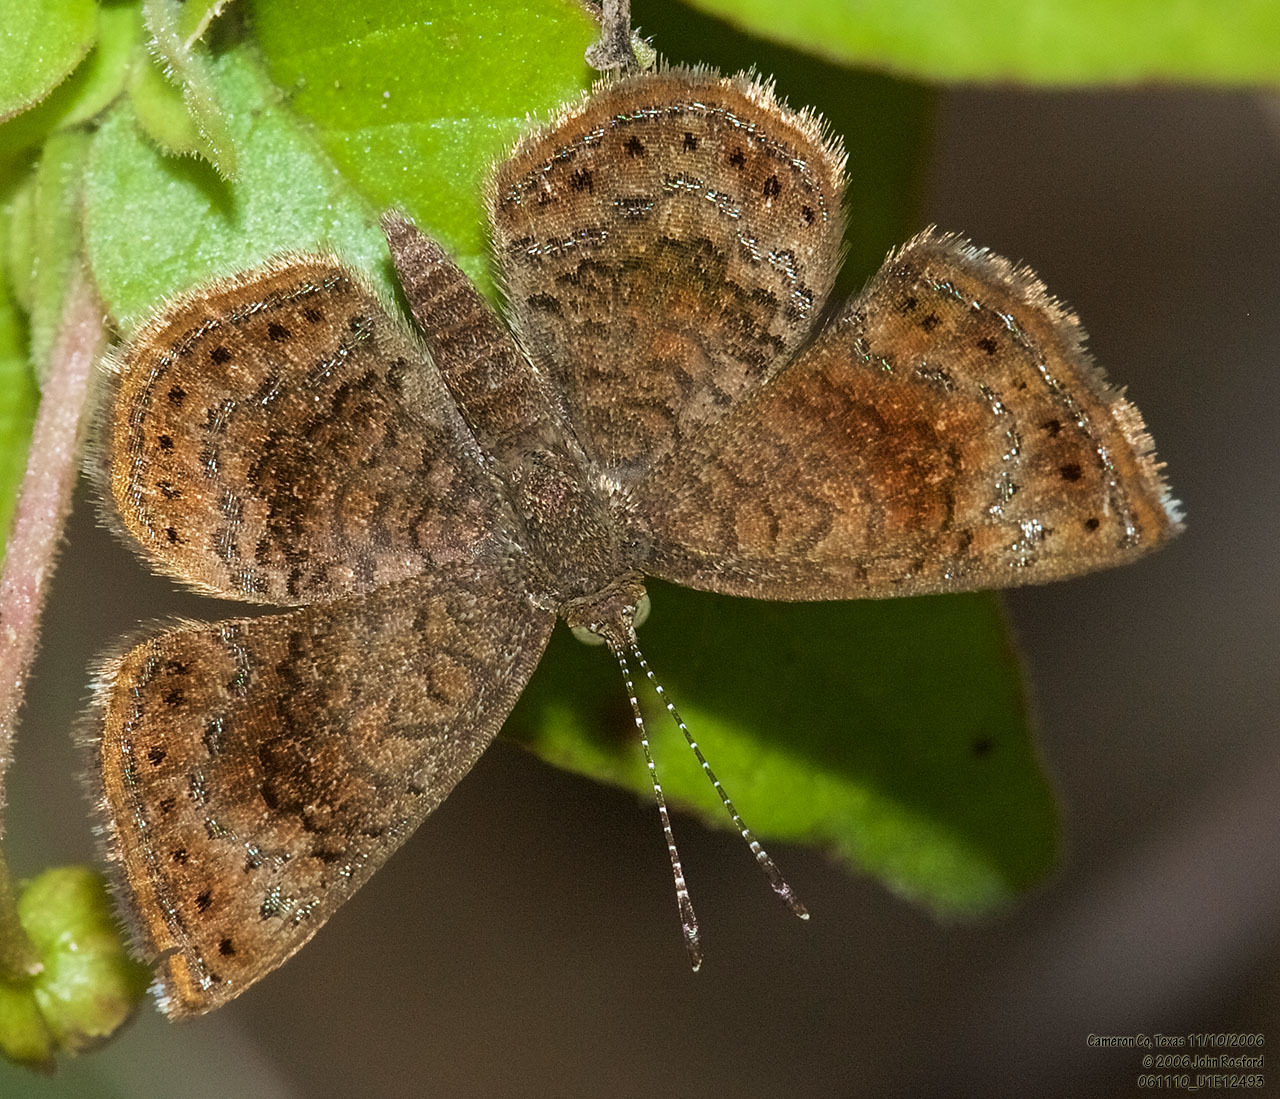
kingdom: Animalia
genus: Calephelis
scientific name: Calephelis perditalis
